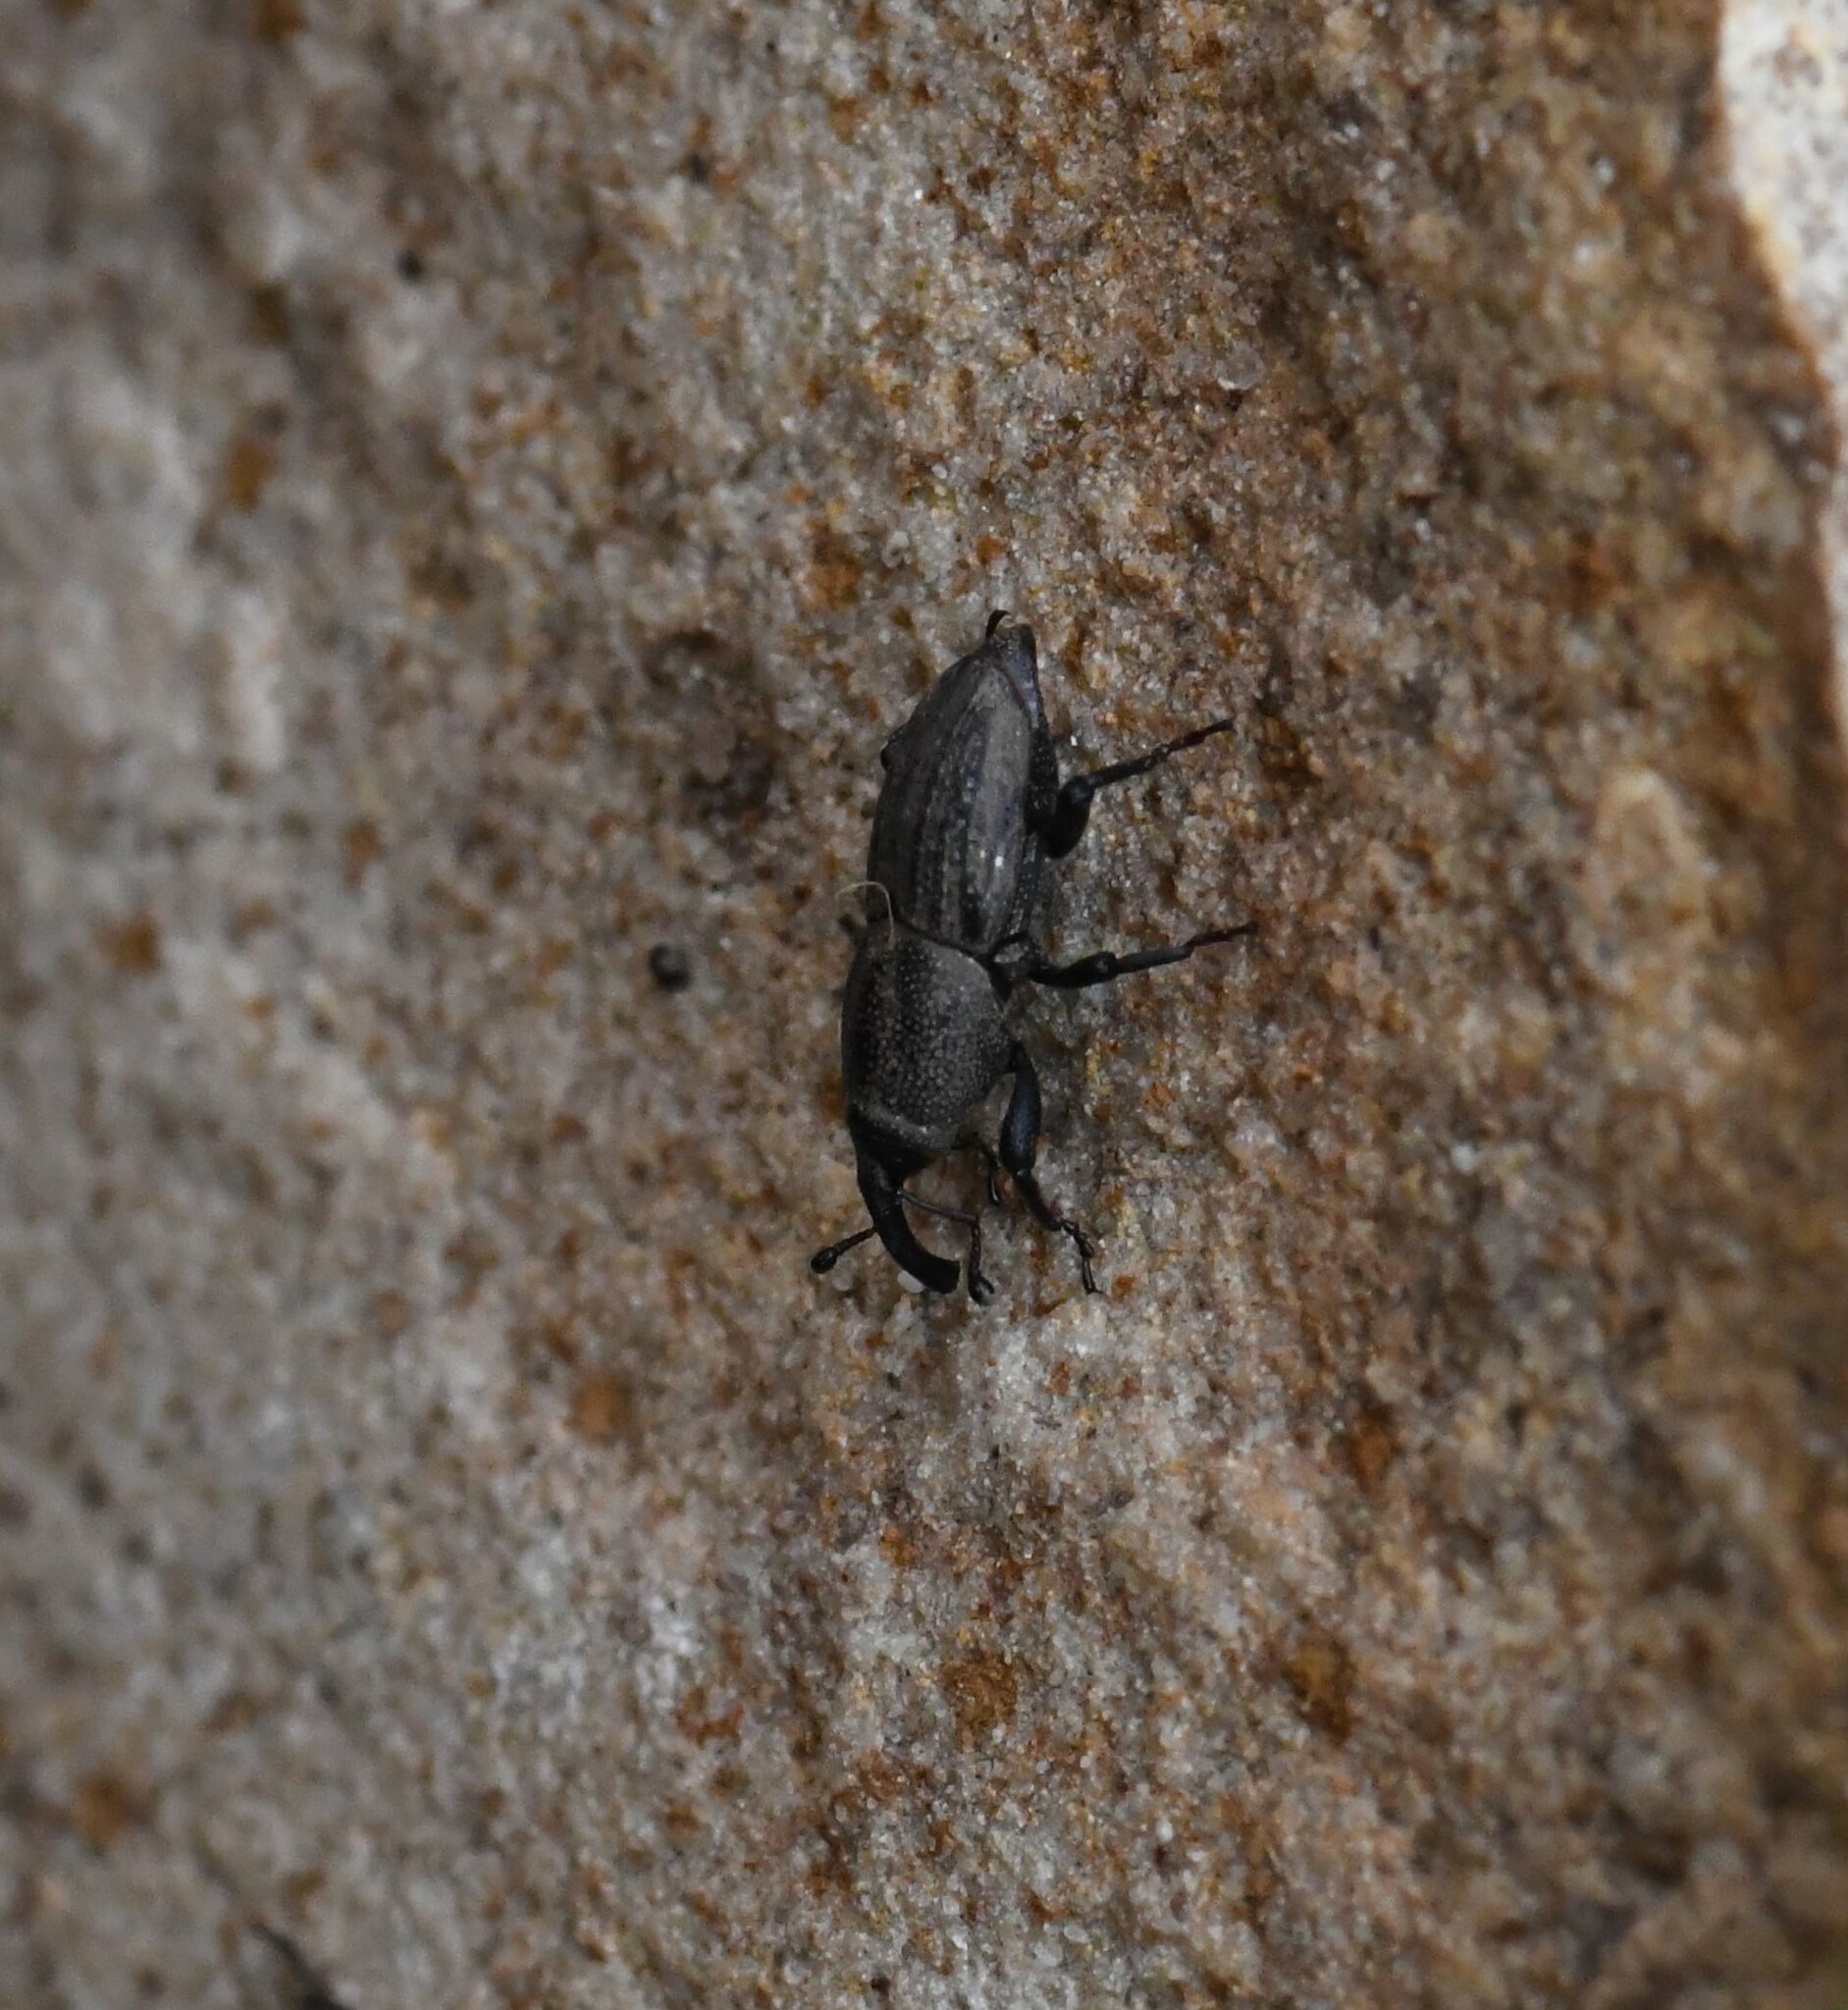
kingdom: Animalia
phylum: Arthropoda
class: Insecta
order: Coleoptera
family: Dryophthoridae
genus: Sphenophorus
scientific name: Sphenophorus interstitialis
